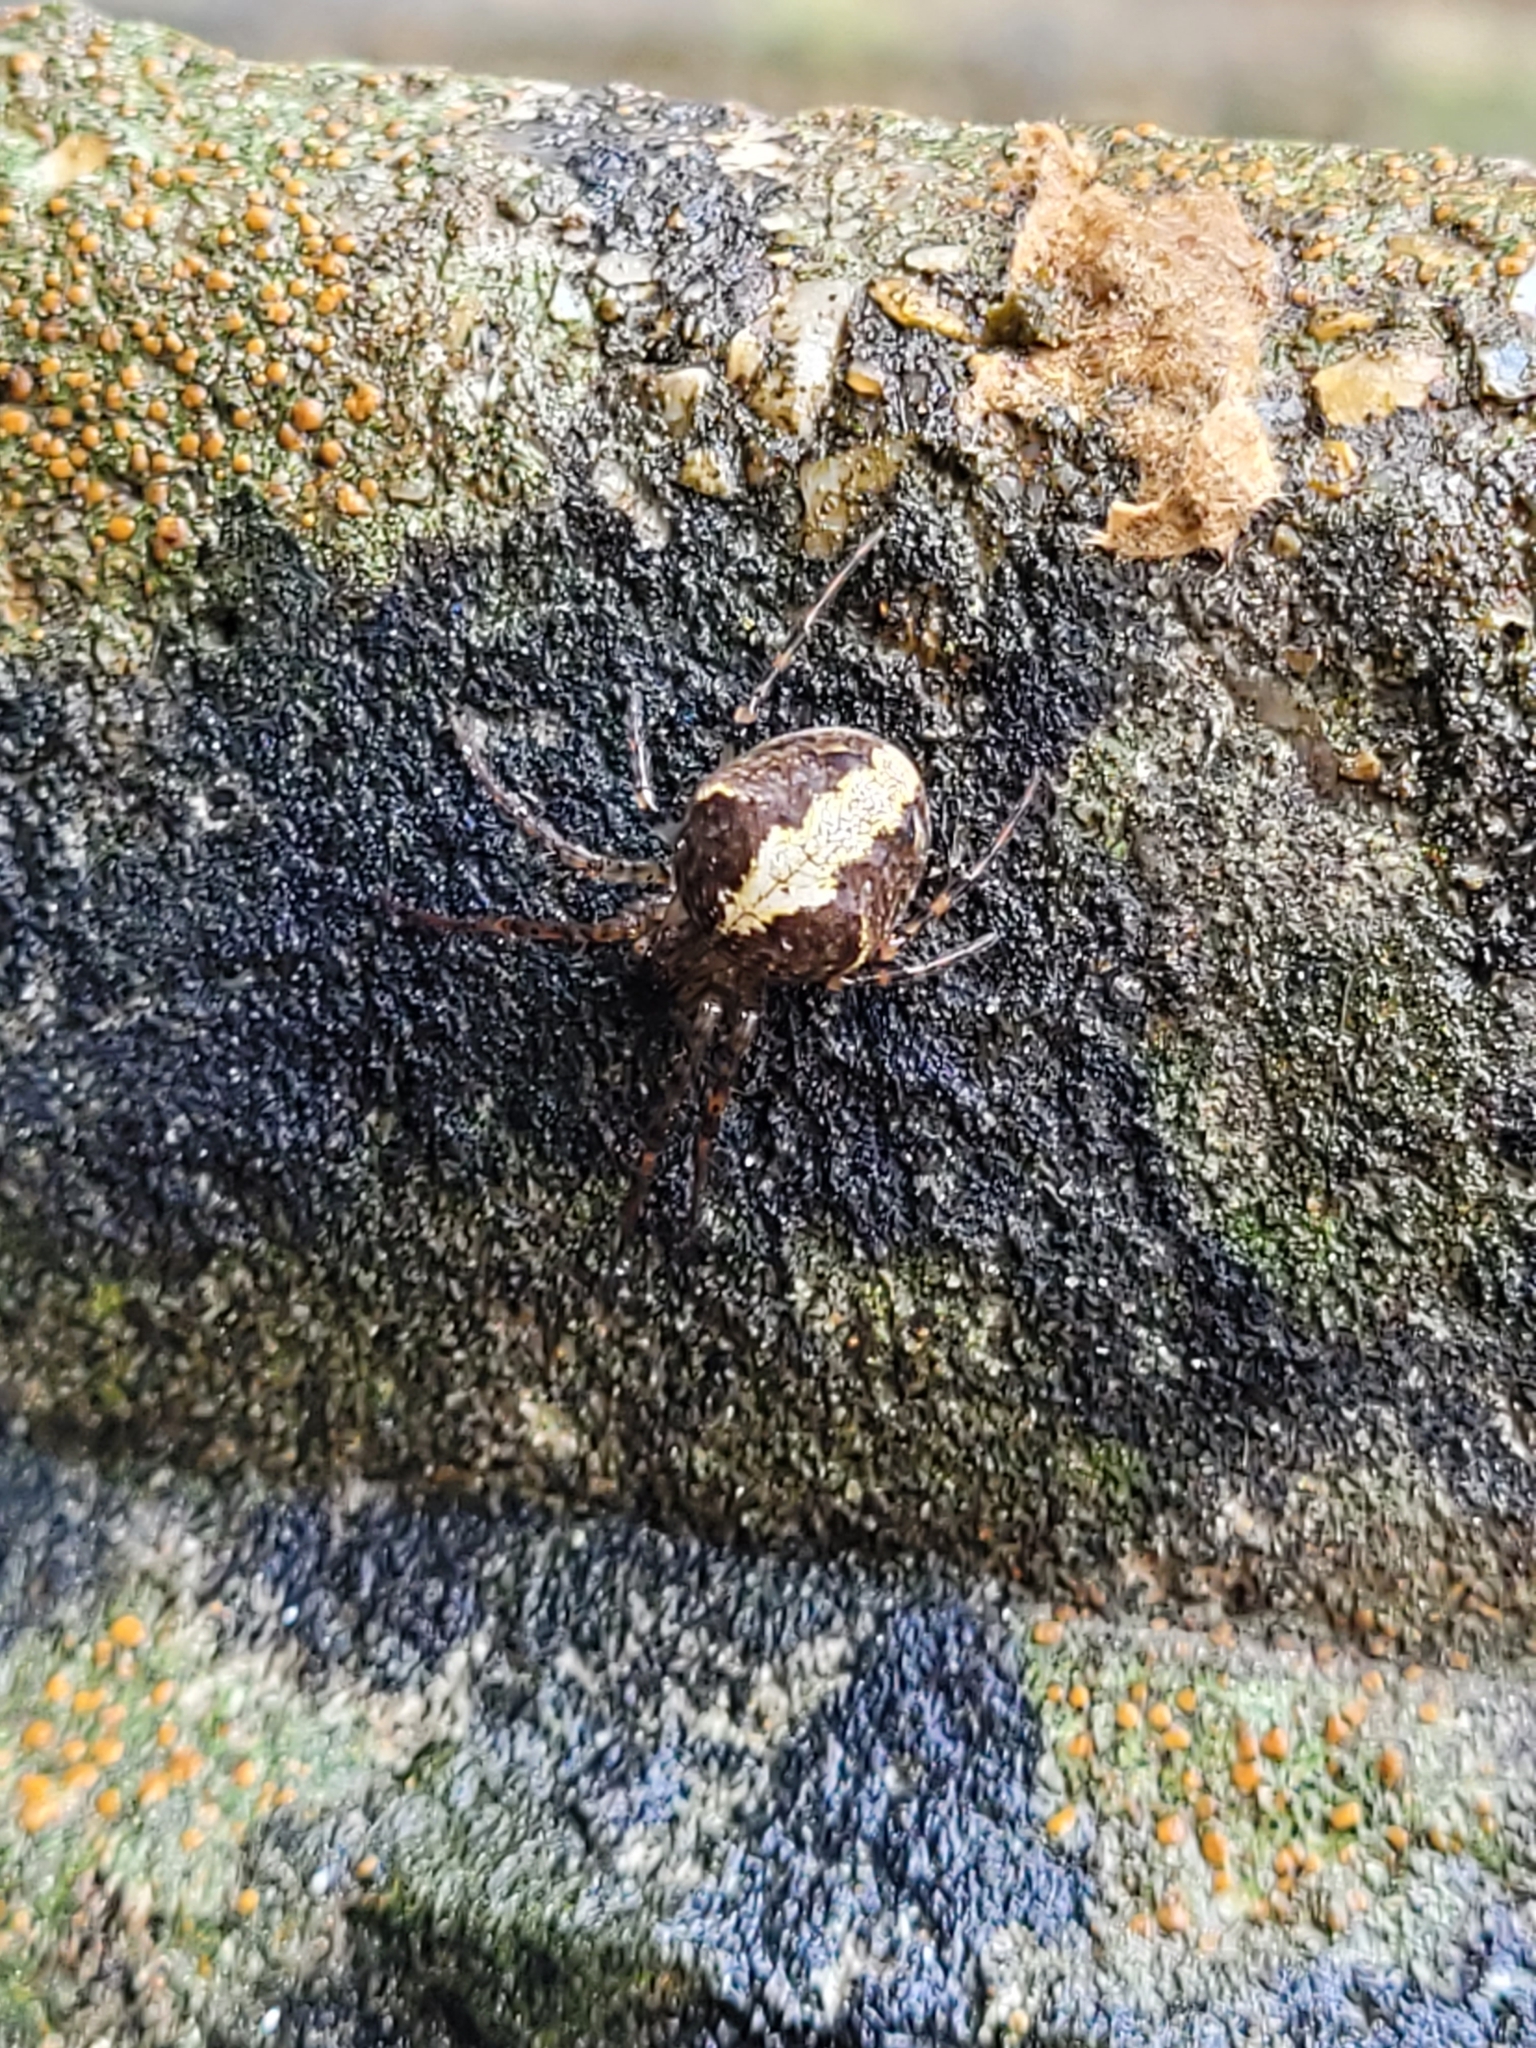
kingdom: Animalia
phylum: Arthropoda
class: Arachnida
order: Araneae
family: Tetragnathidae
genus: Metellina
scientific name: Metellina merianae
